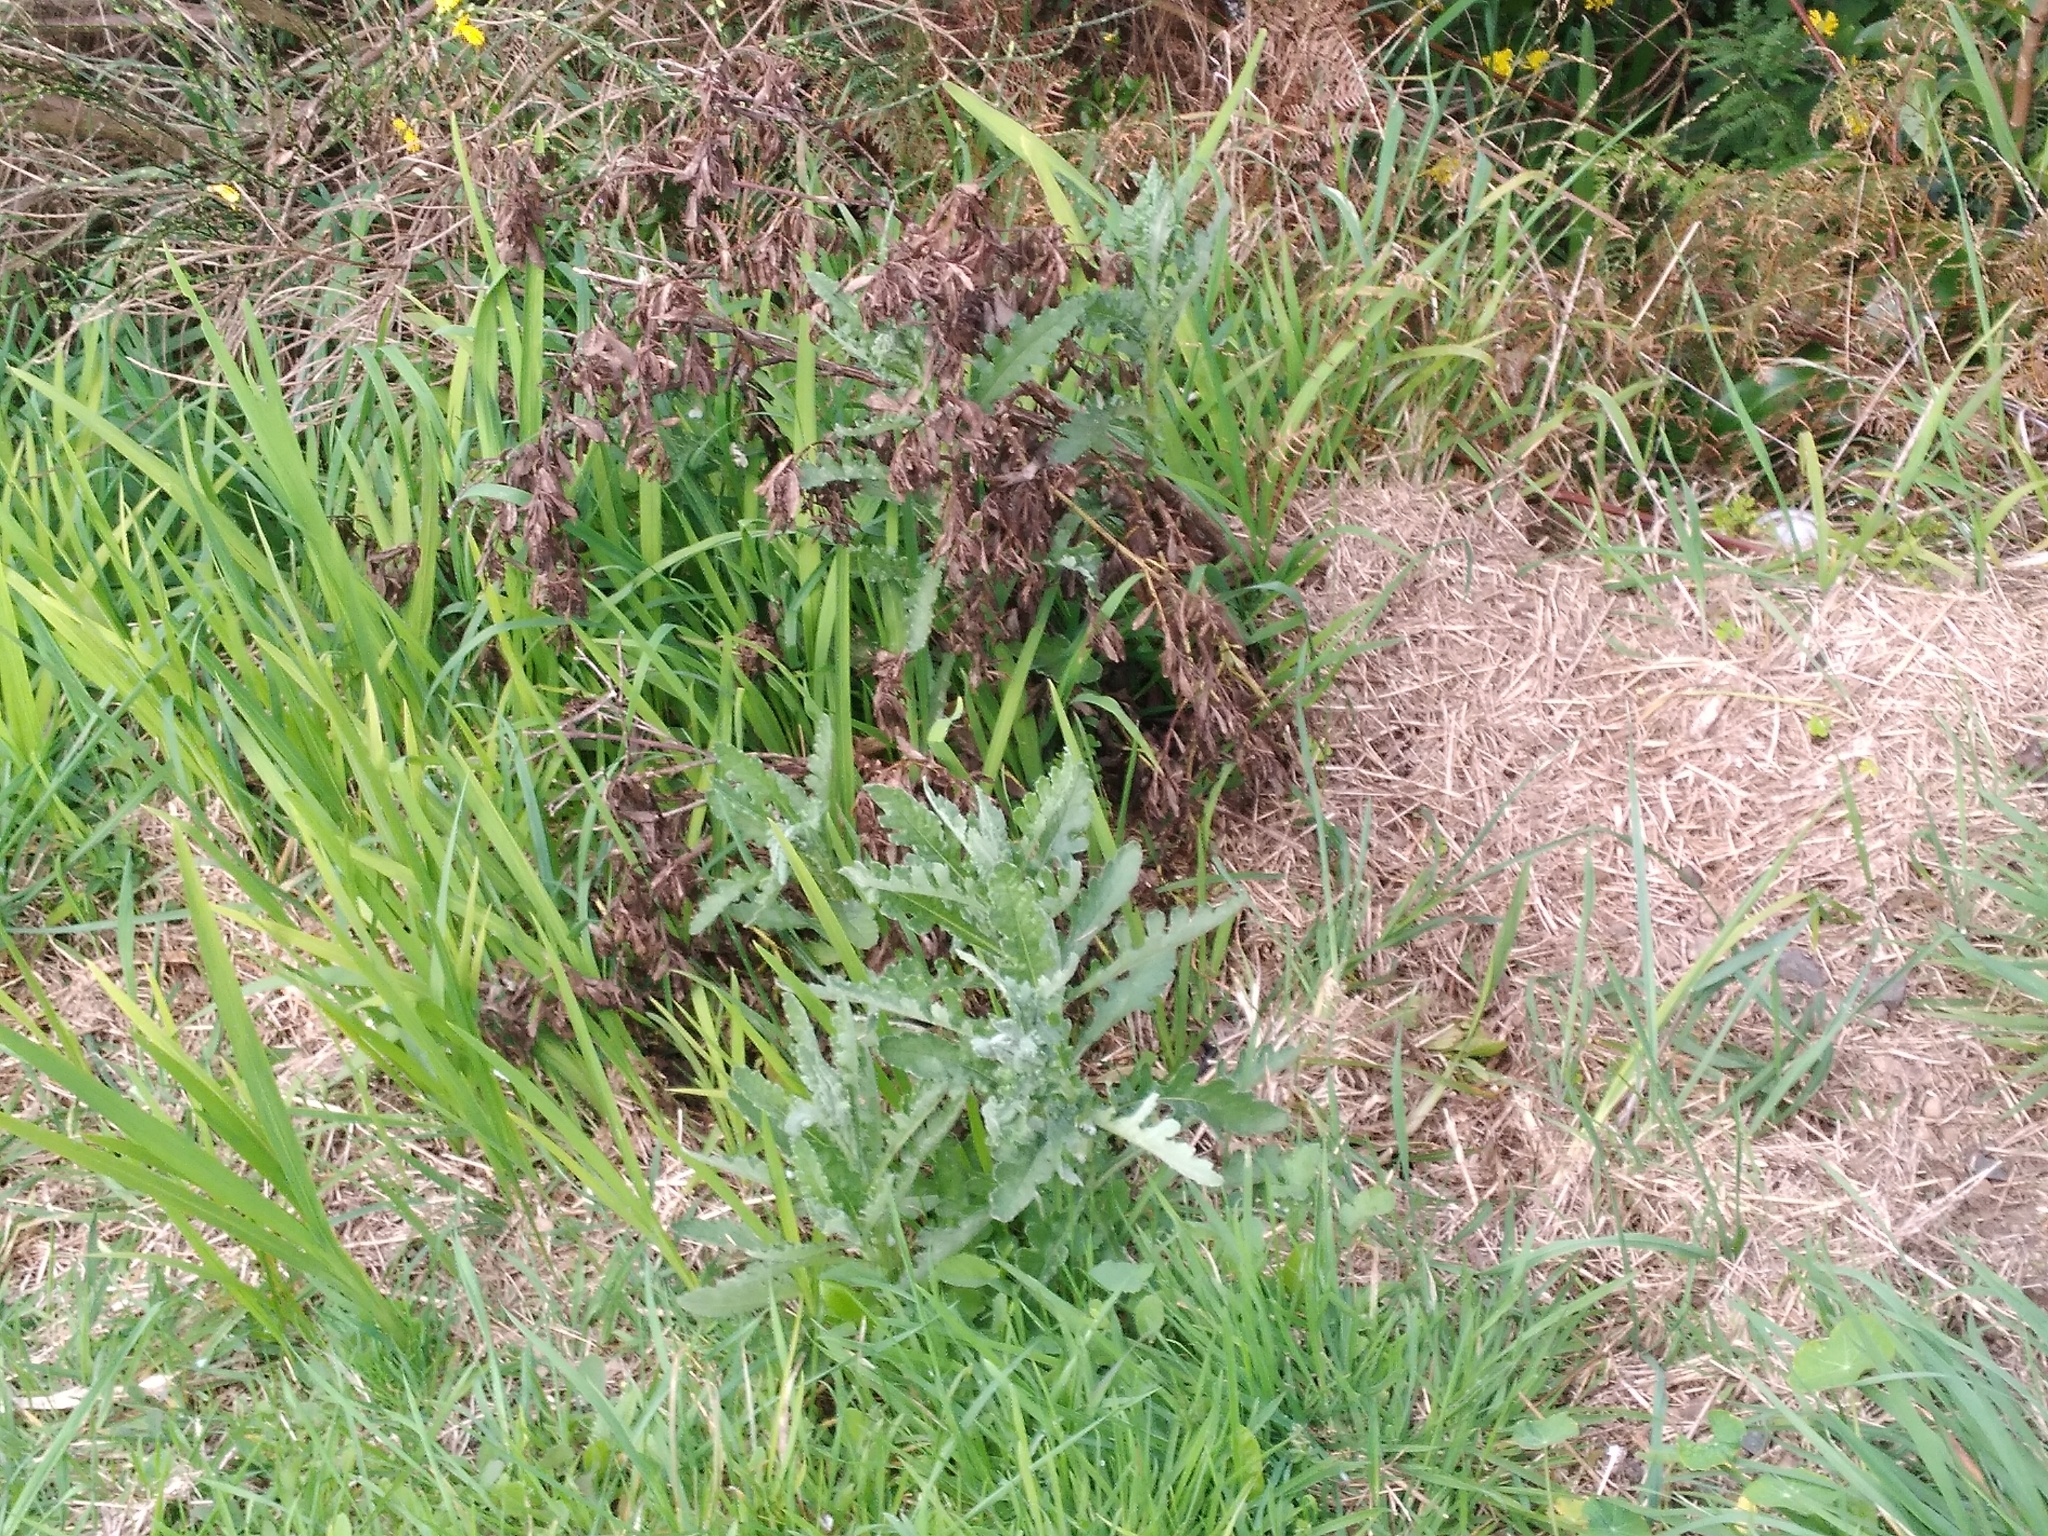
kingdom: Plantae
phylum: Tracheophyta
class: Magnoliopsida
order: Asterales
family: Asteraceae
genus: Senecio
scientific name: Senecio glomeratus
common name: Cutleaf burnweed
